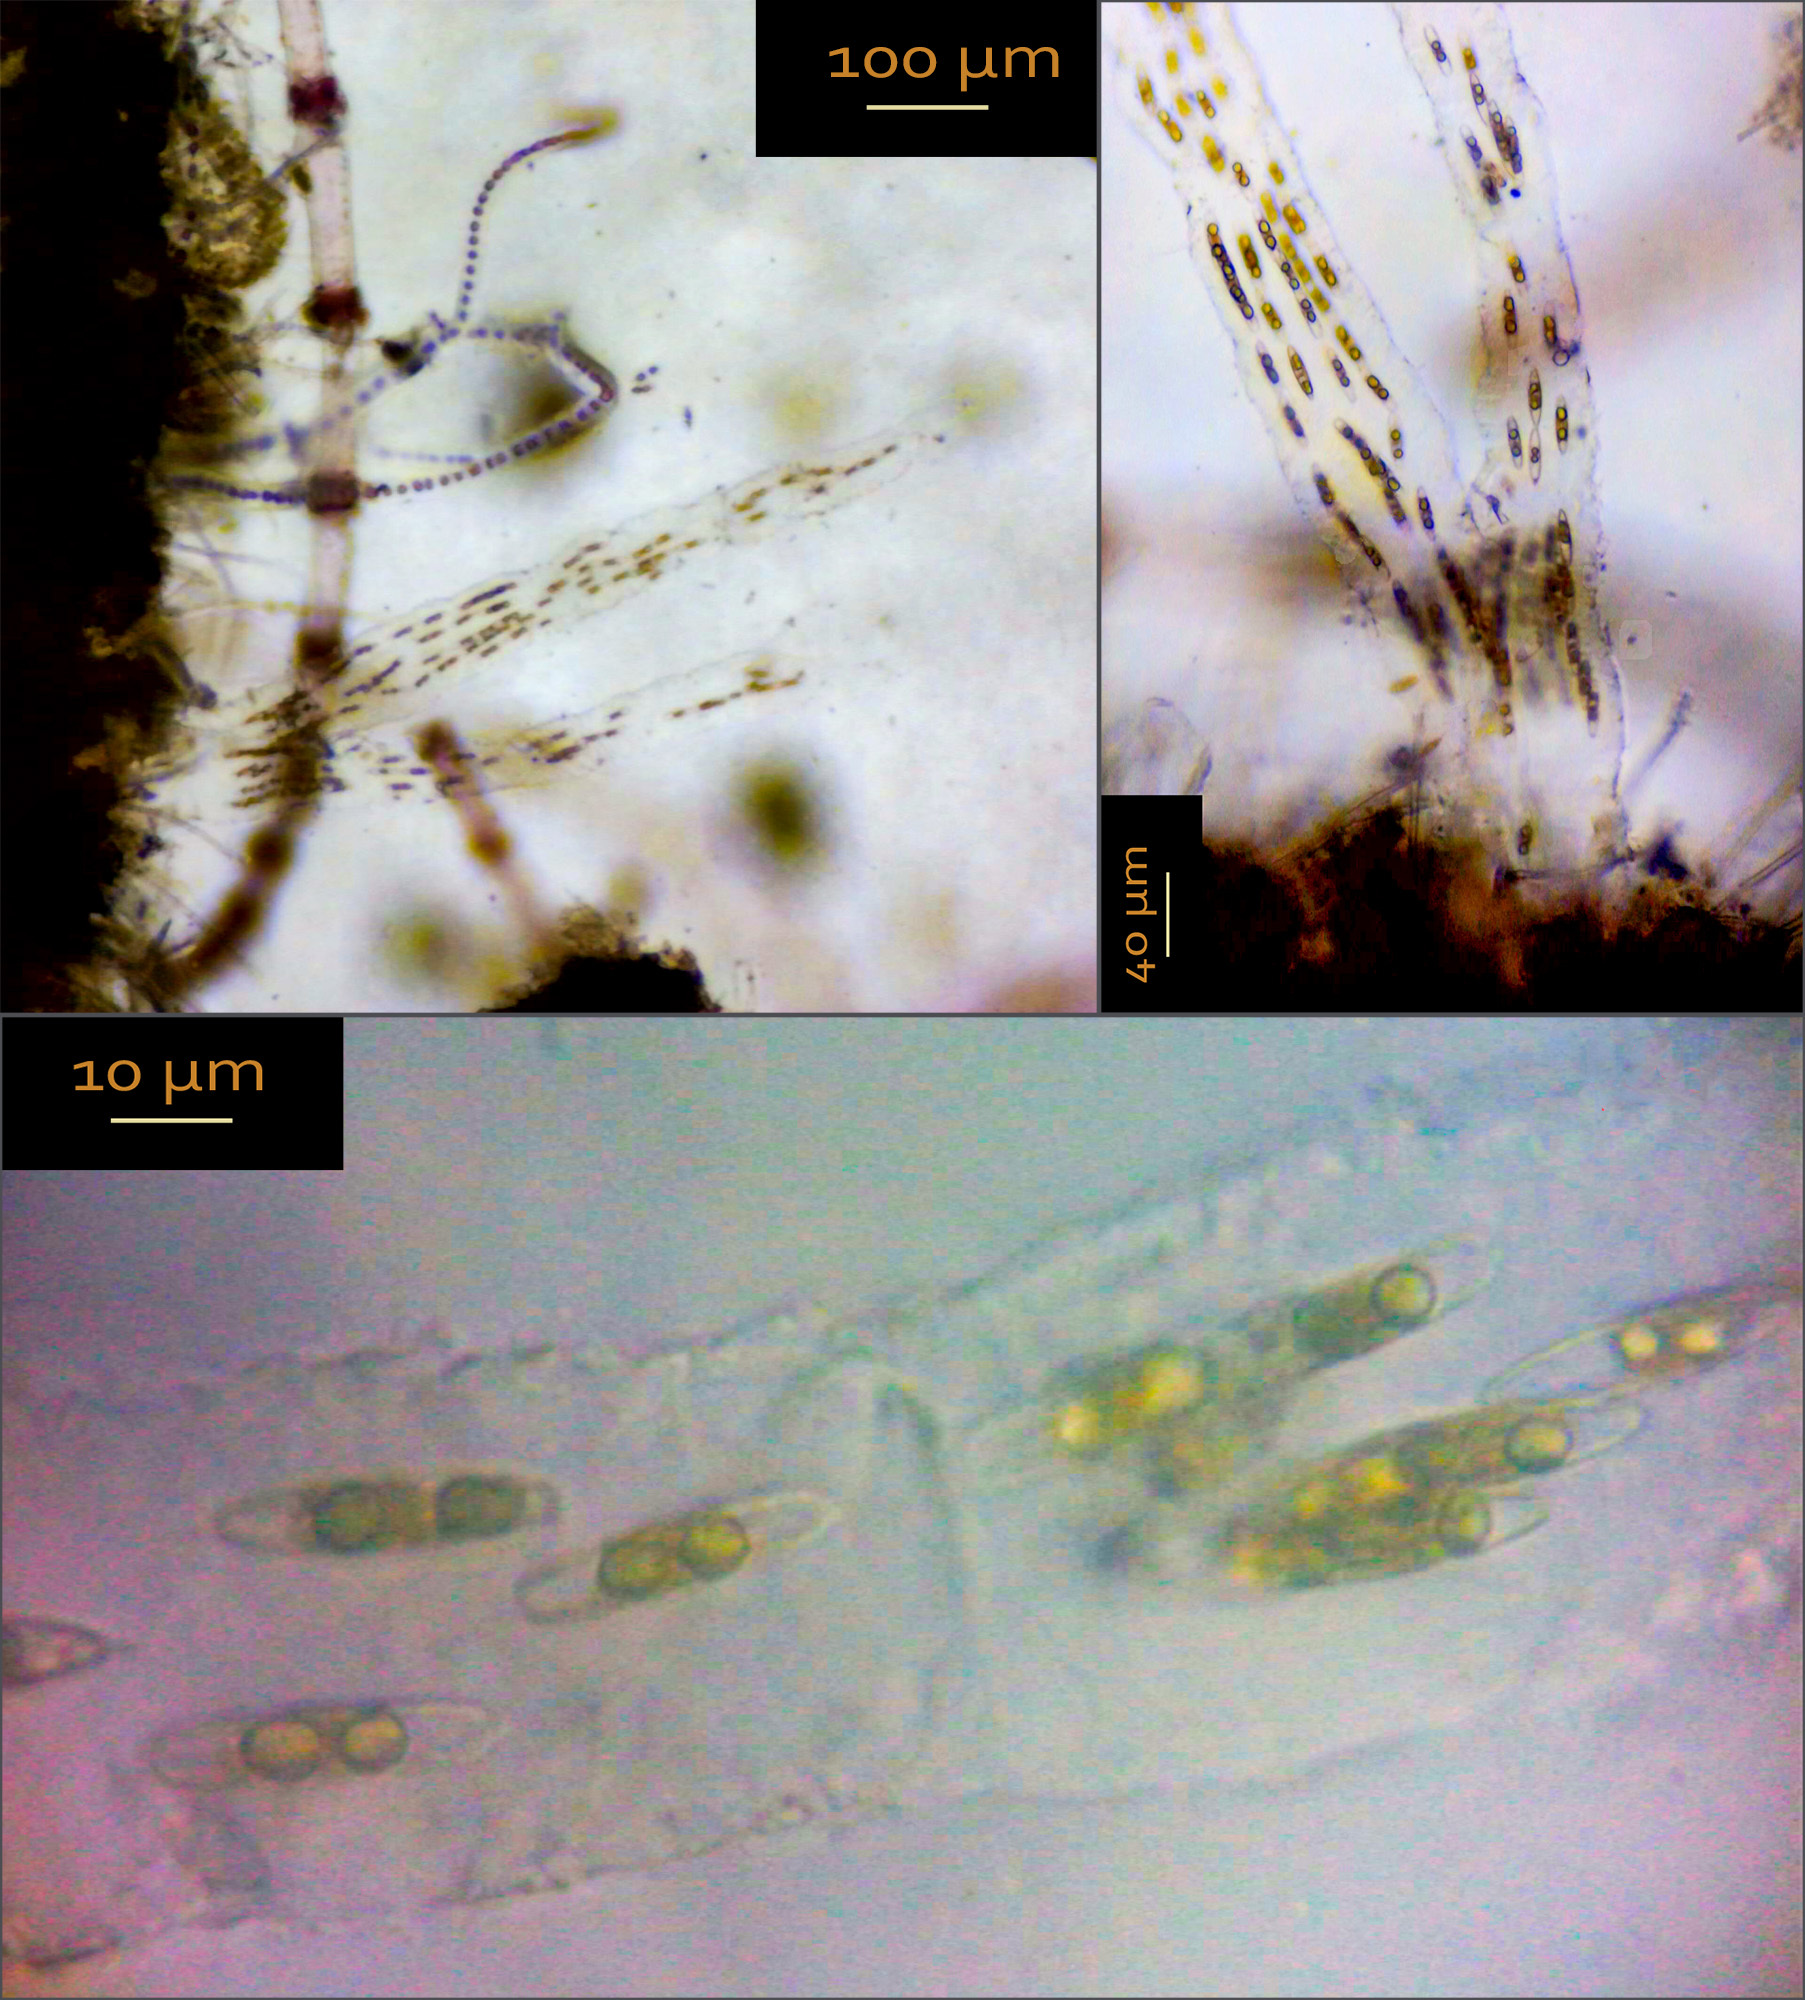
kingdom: Chromista
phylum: Ochrophyta
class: Bacillariophyceae
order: Naviculales
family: Berkeleyaceae
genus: Berkeleya
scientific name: Berkeleya rutilans
